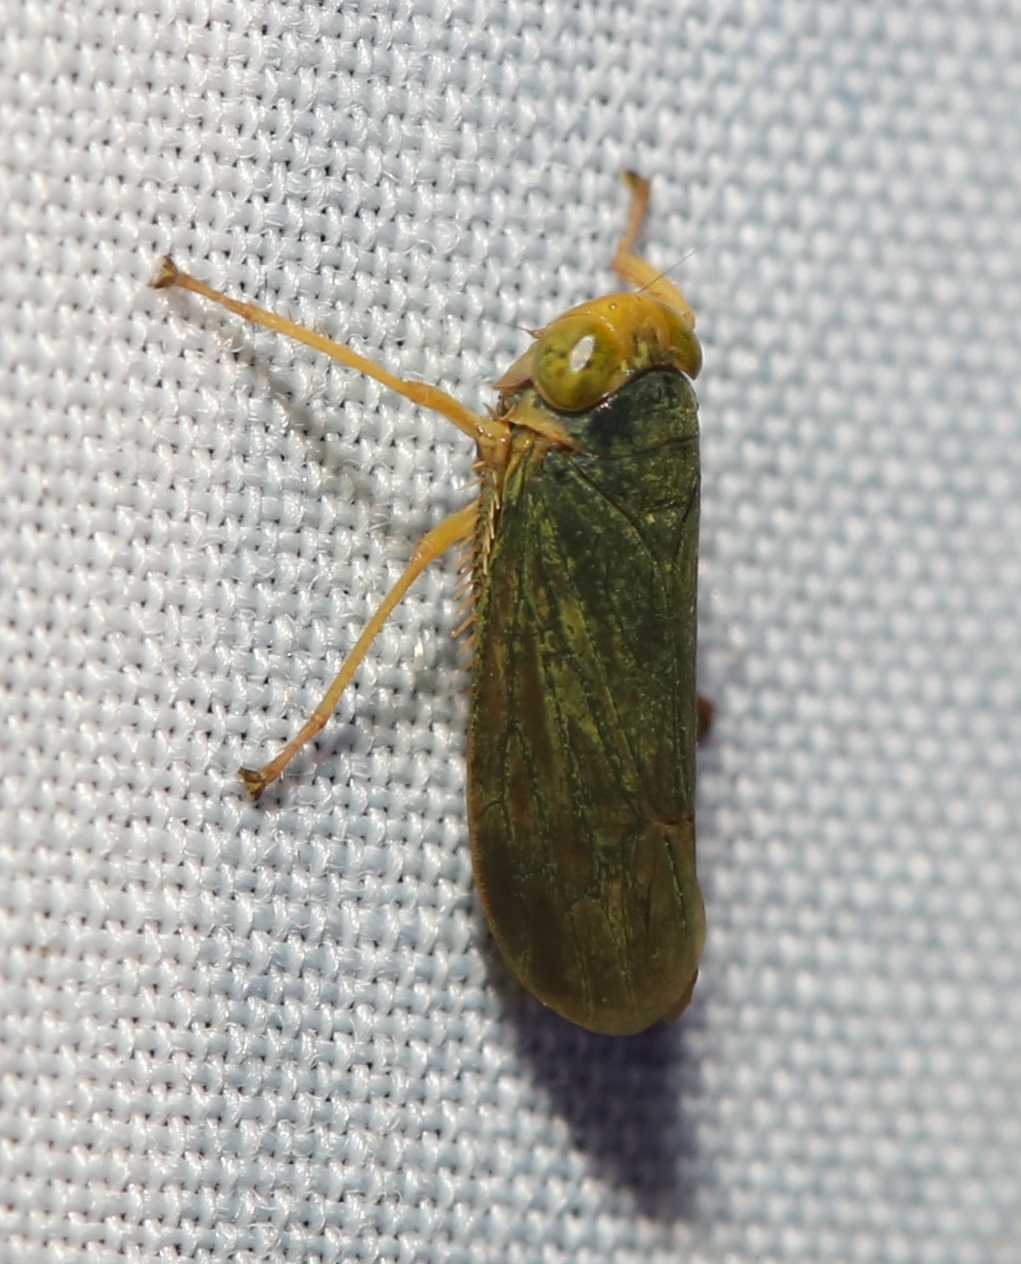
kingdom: Animalia
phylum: Arthropoda
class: Insecta
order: Hemiptera
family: Cicadellidae
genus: Jikradia
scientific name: Jikradia olitoria
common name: Coppery leafhopper
